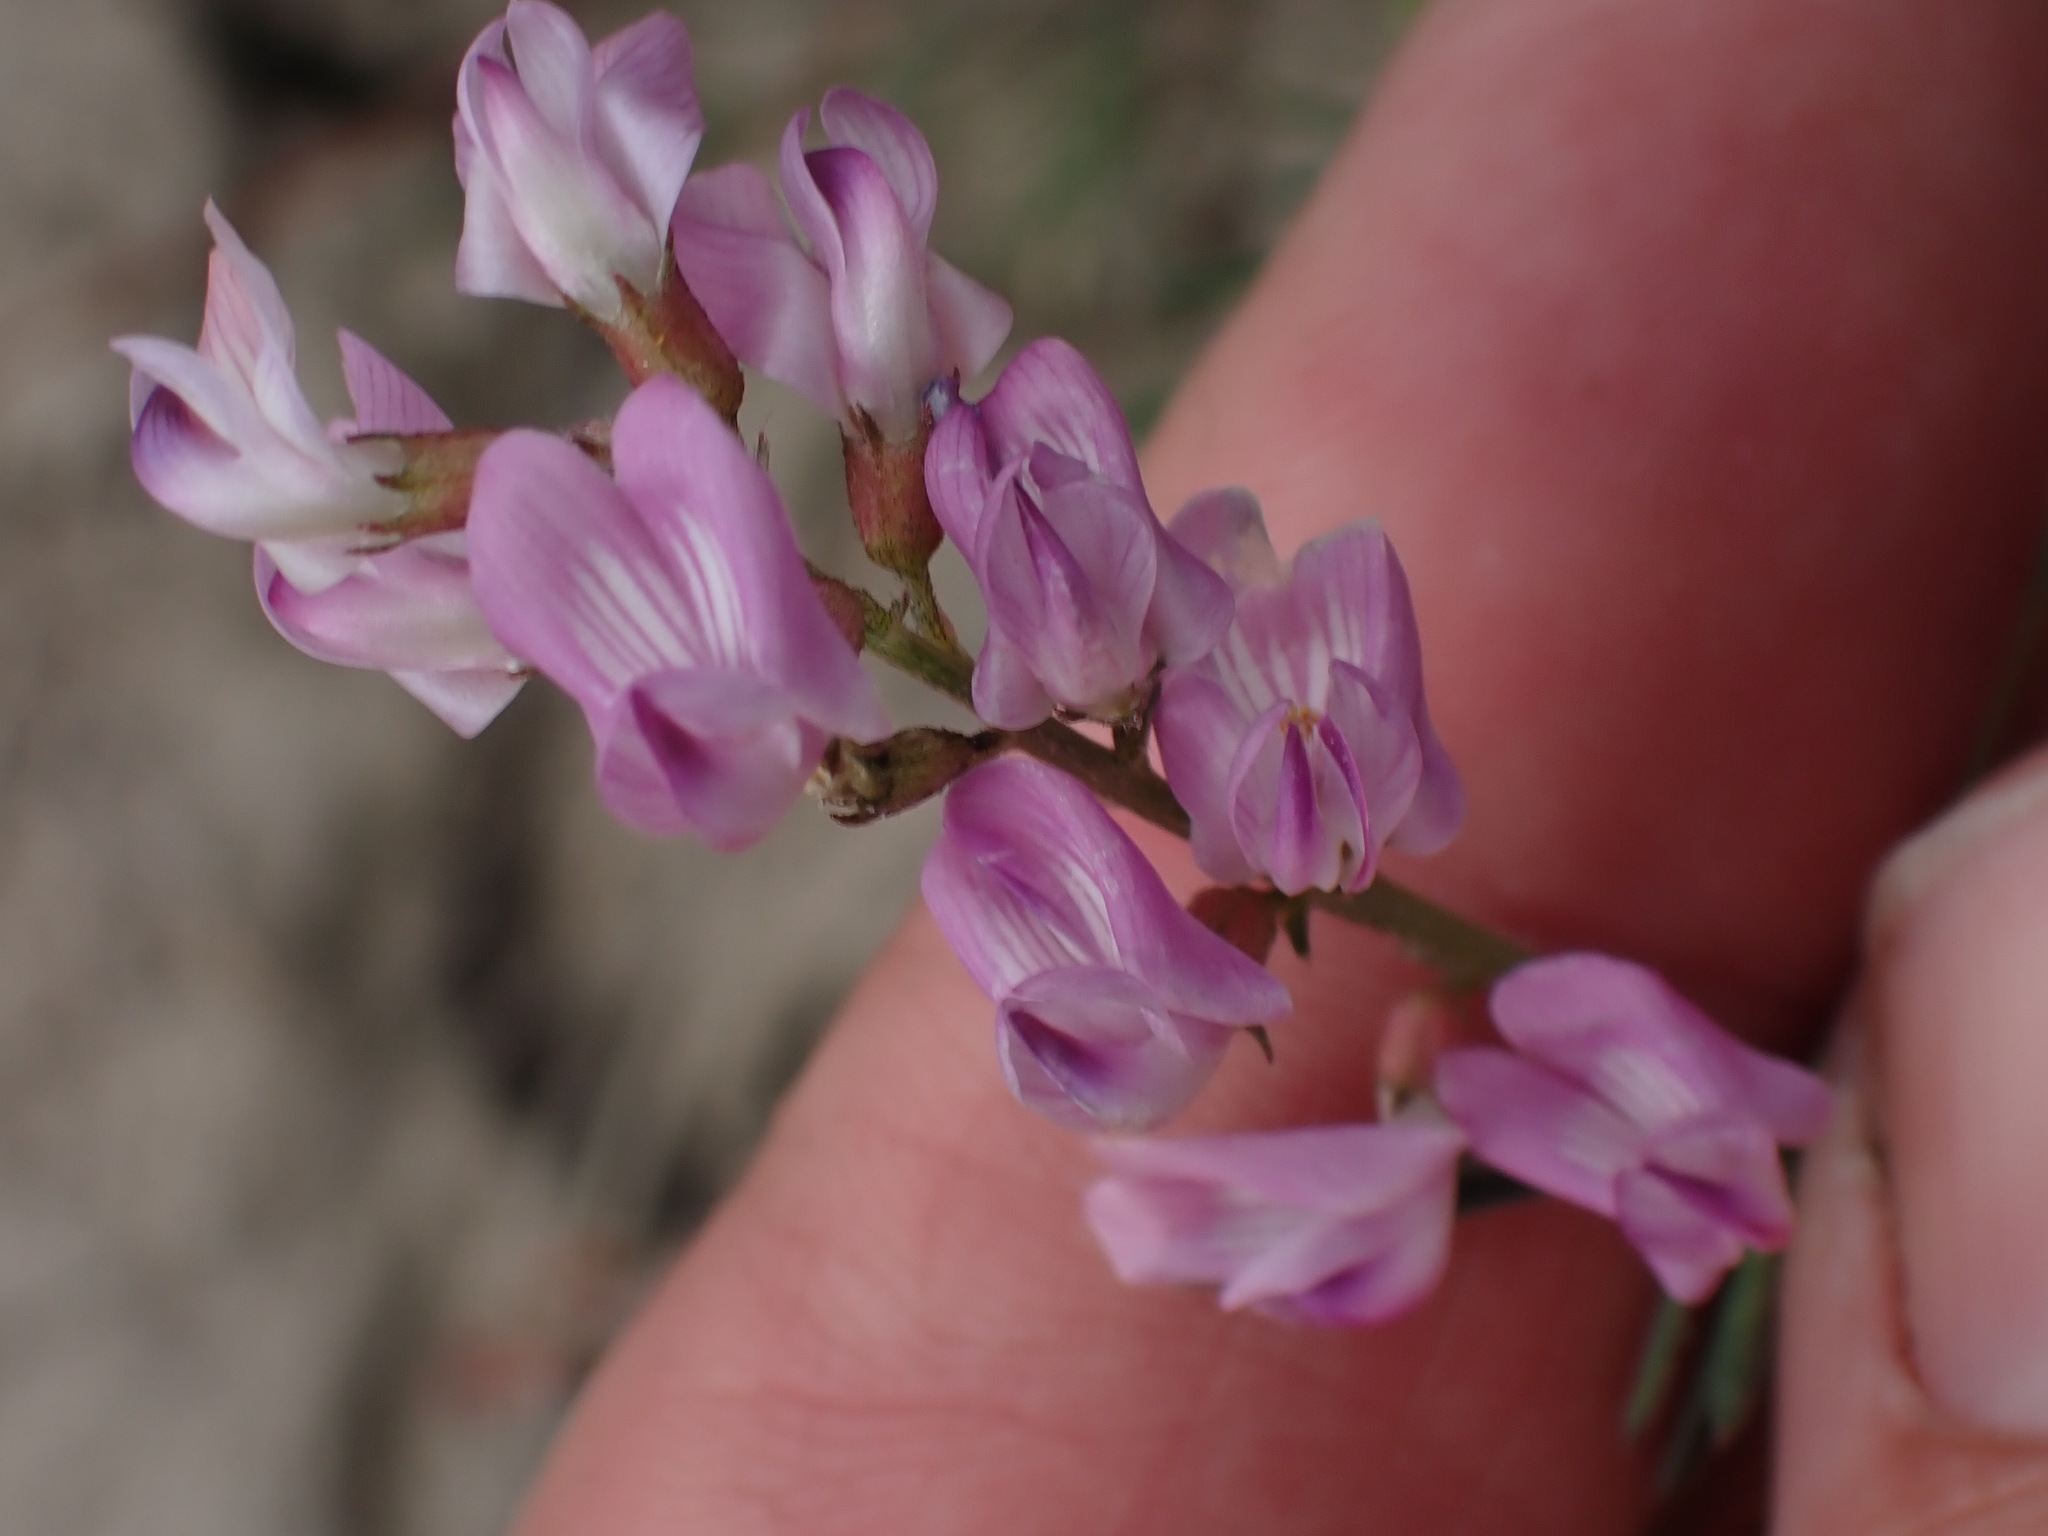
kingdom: Plantae
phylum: Tracheophyta
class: Magnoliopsida
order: Fabales
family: Fabaceae
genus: Astragalus
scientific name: Astragalus miser
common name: Timber milkvetch
